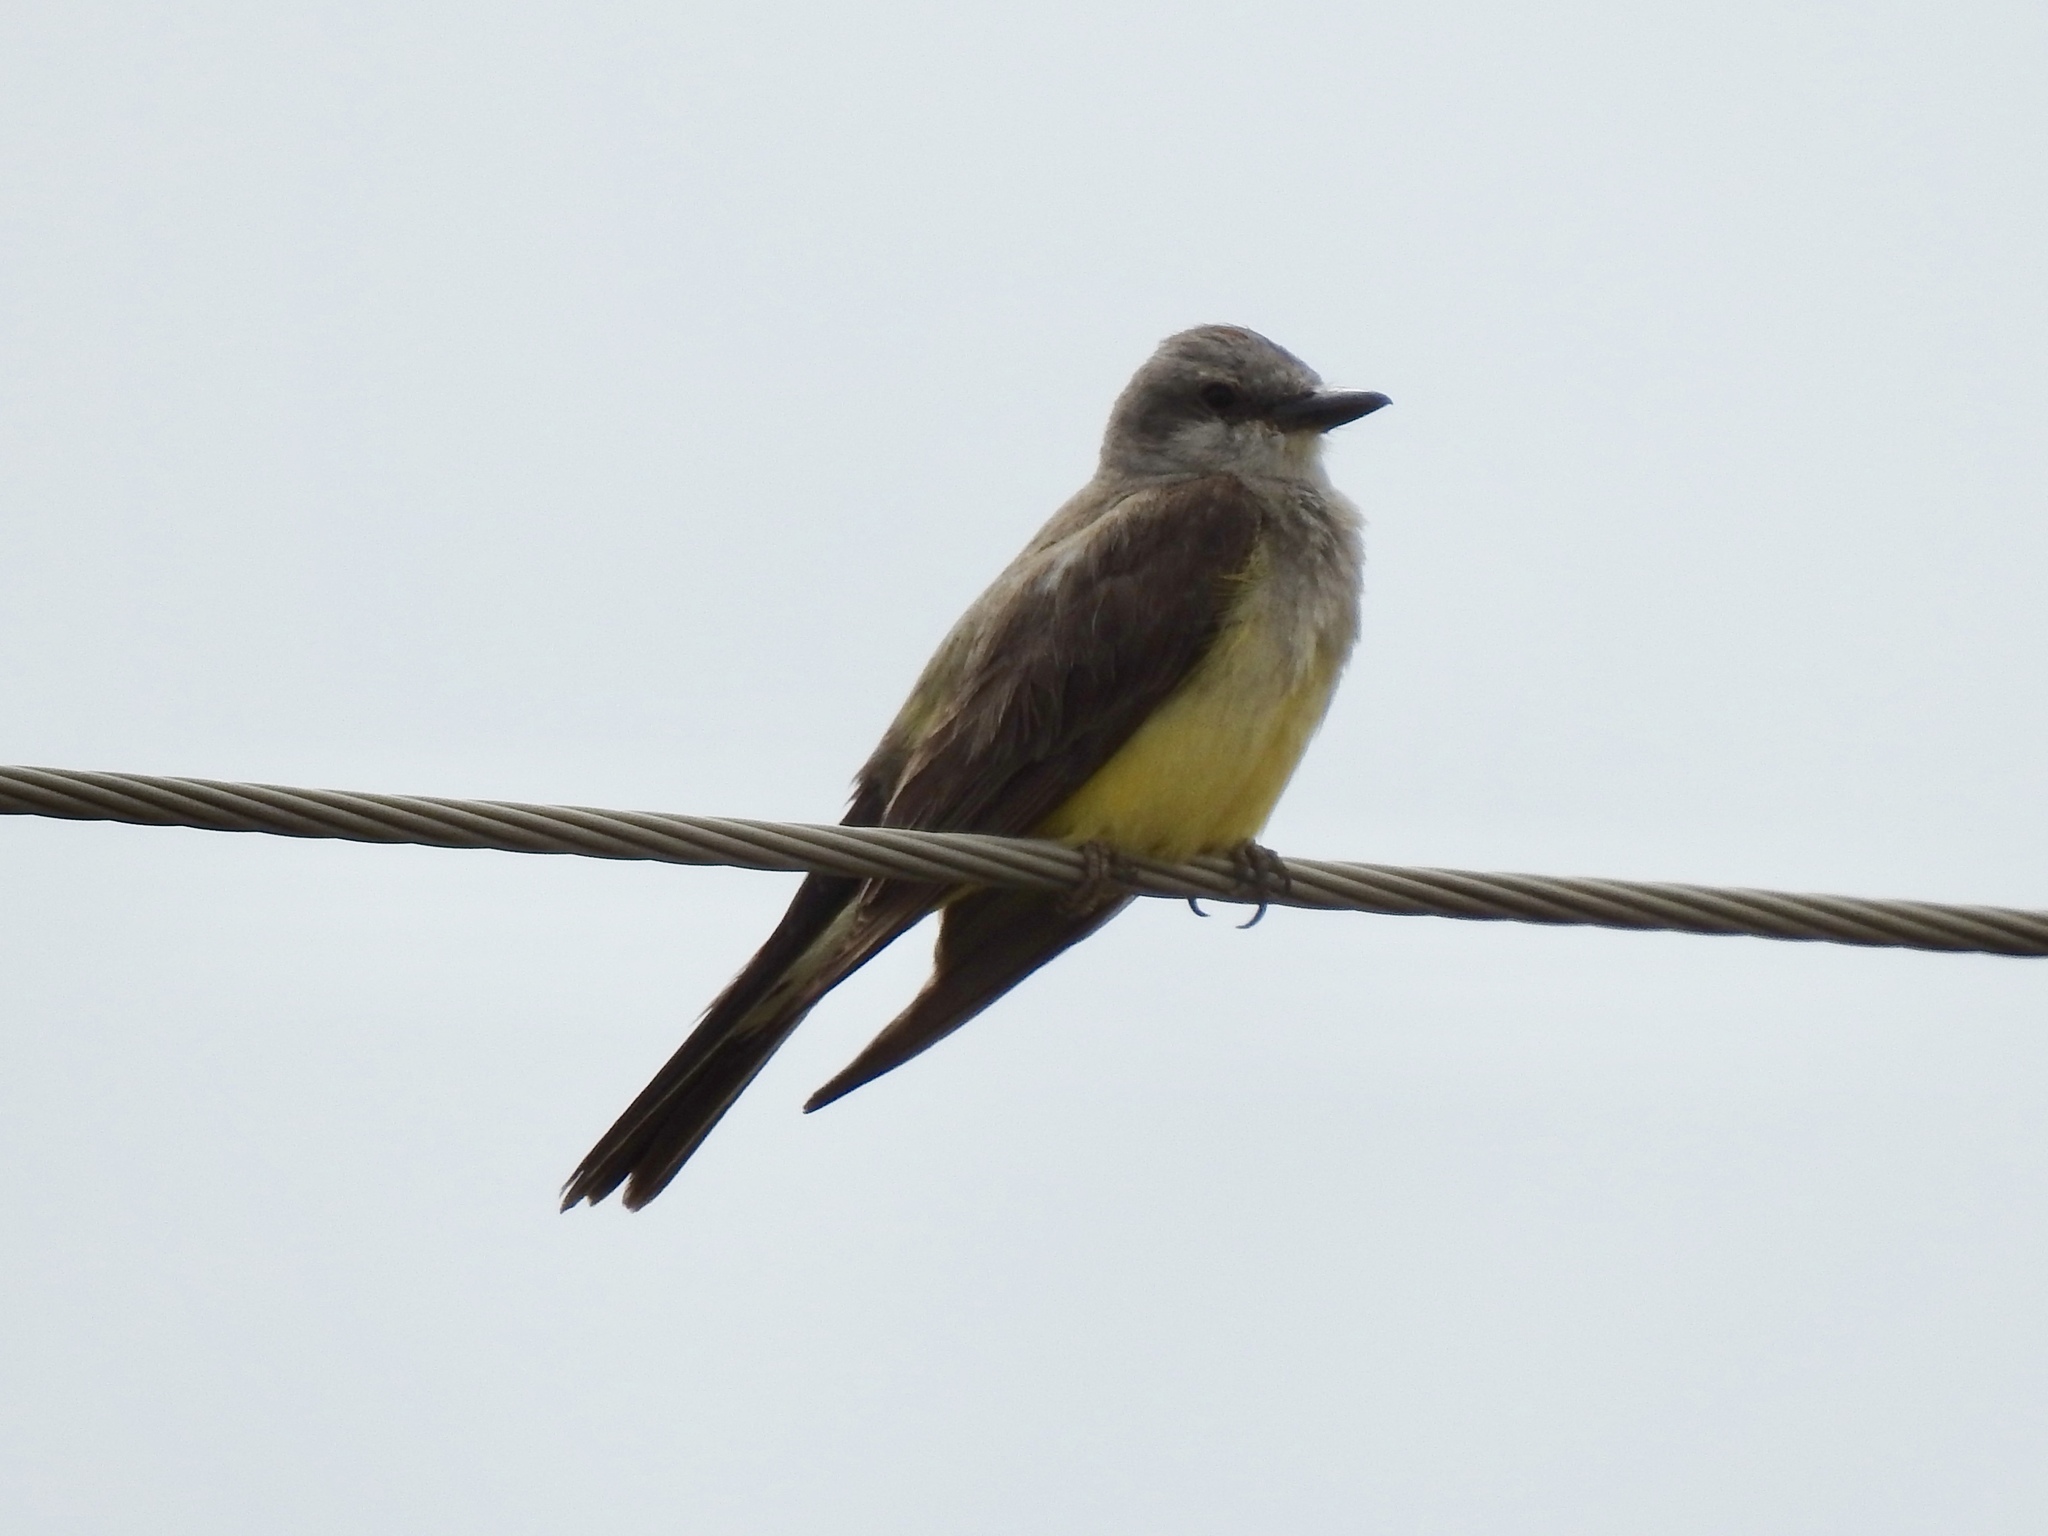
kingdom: Animalia
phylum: Chordata
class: Aves
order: Passeriformes
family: Tyrannidae
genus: Tyrannus
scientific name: Tyrannus verticalis
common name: Western kingbird
